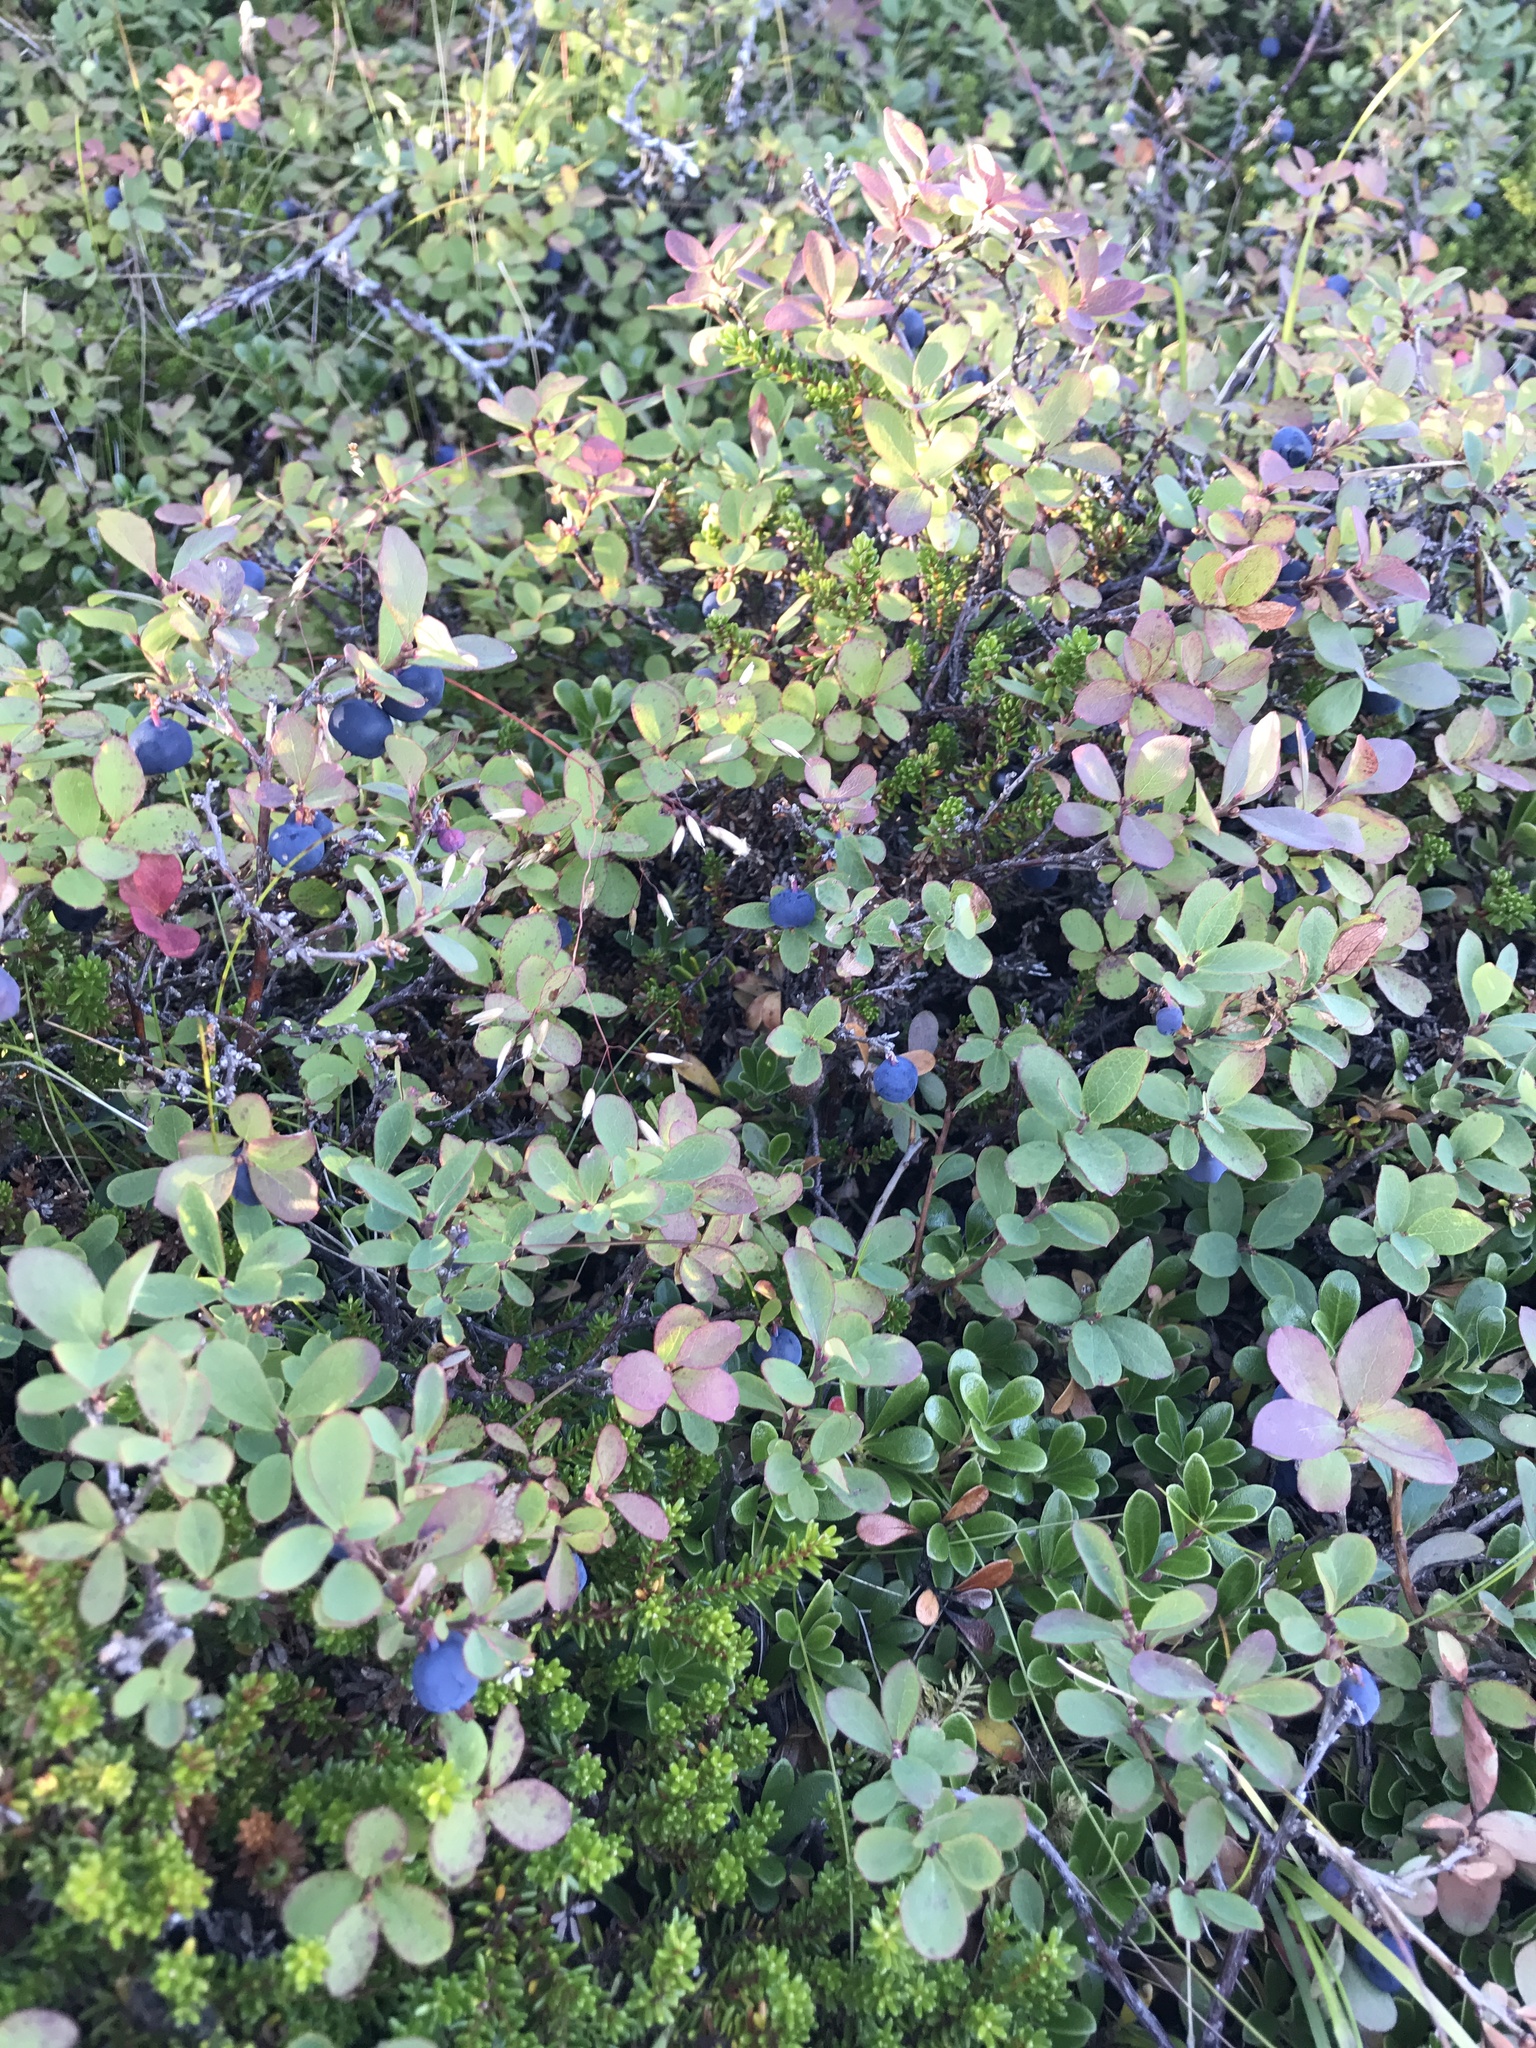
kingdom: Plantae
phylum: Tracheophyta
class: Magnoliopsida
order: Ericales
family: Ericaceae
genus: Vaccinium
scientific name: Vaccinium uliginosum
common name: Bog bilberry
